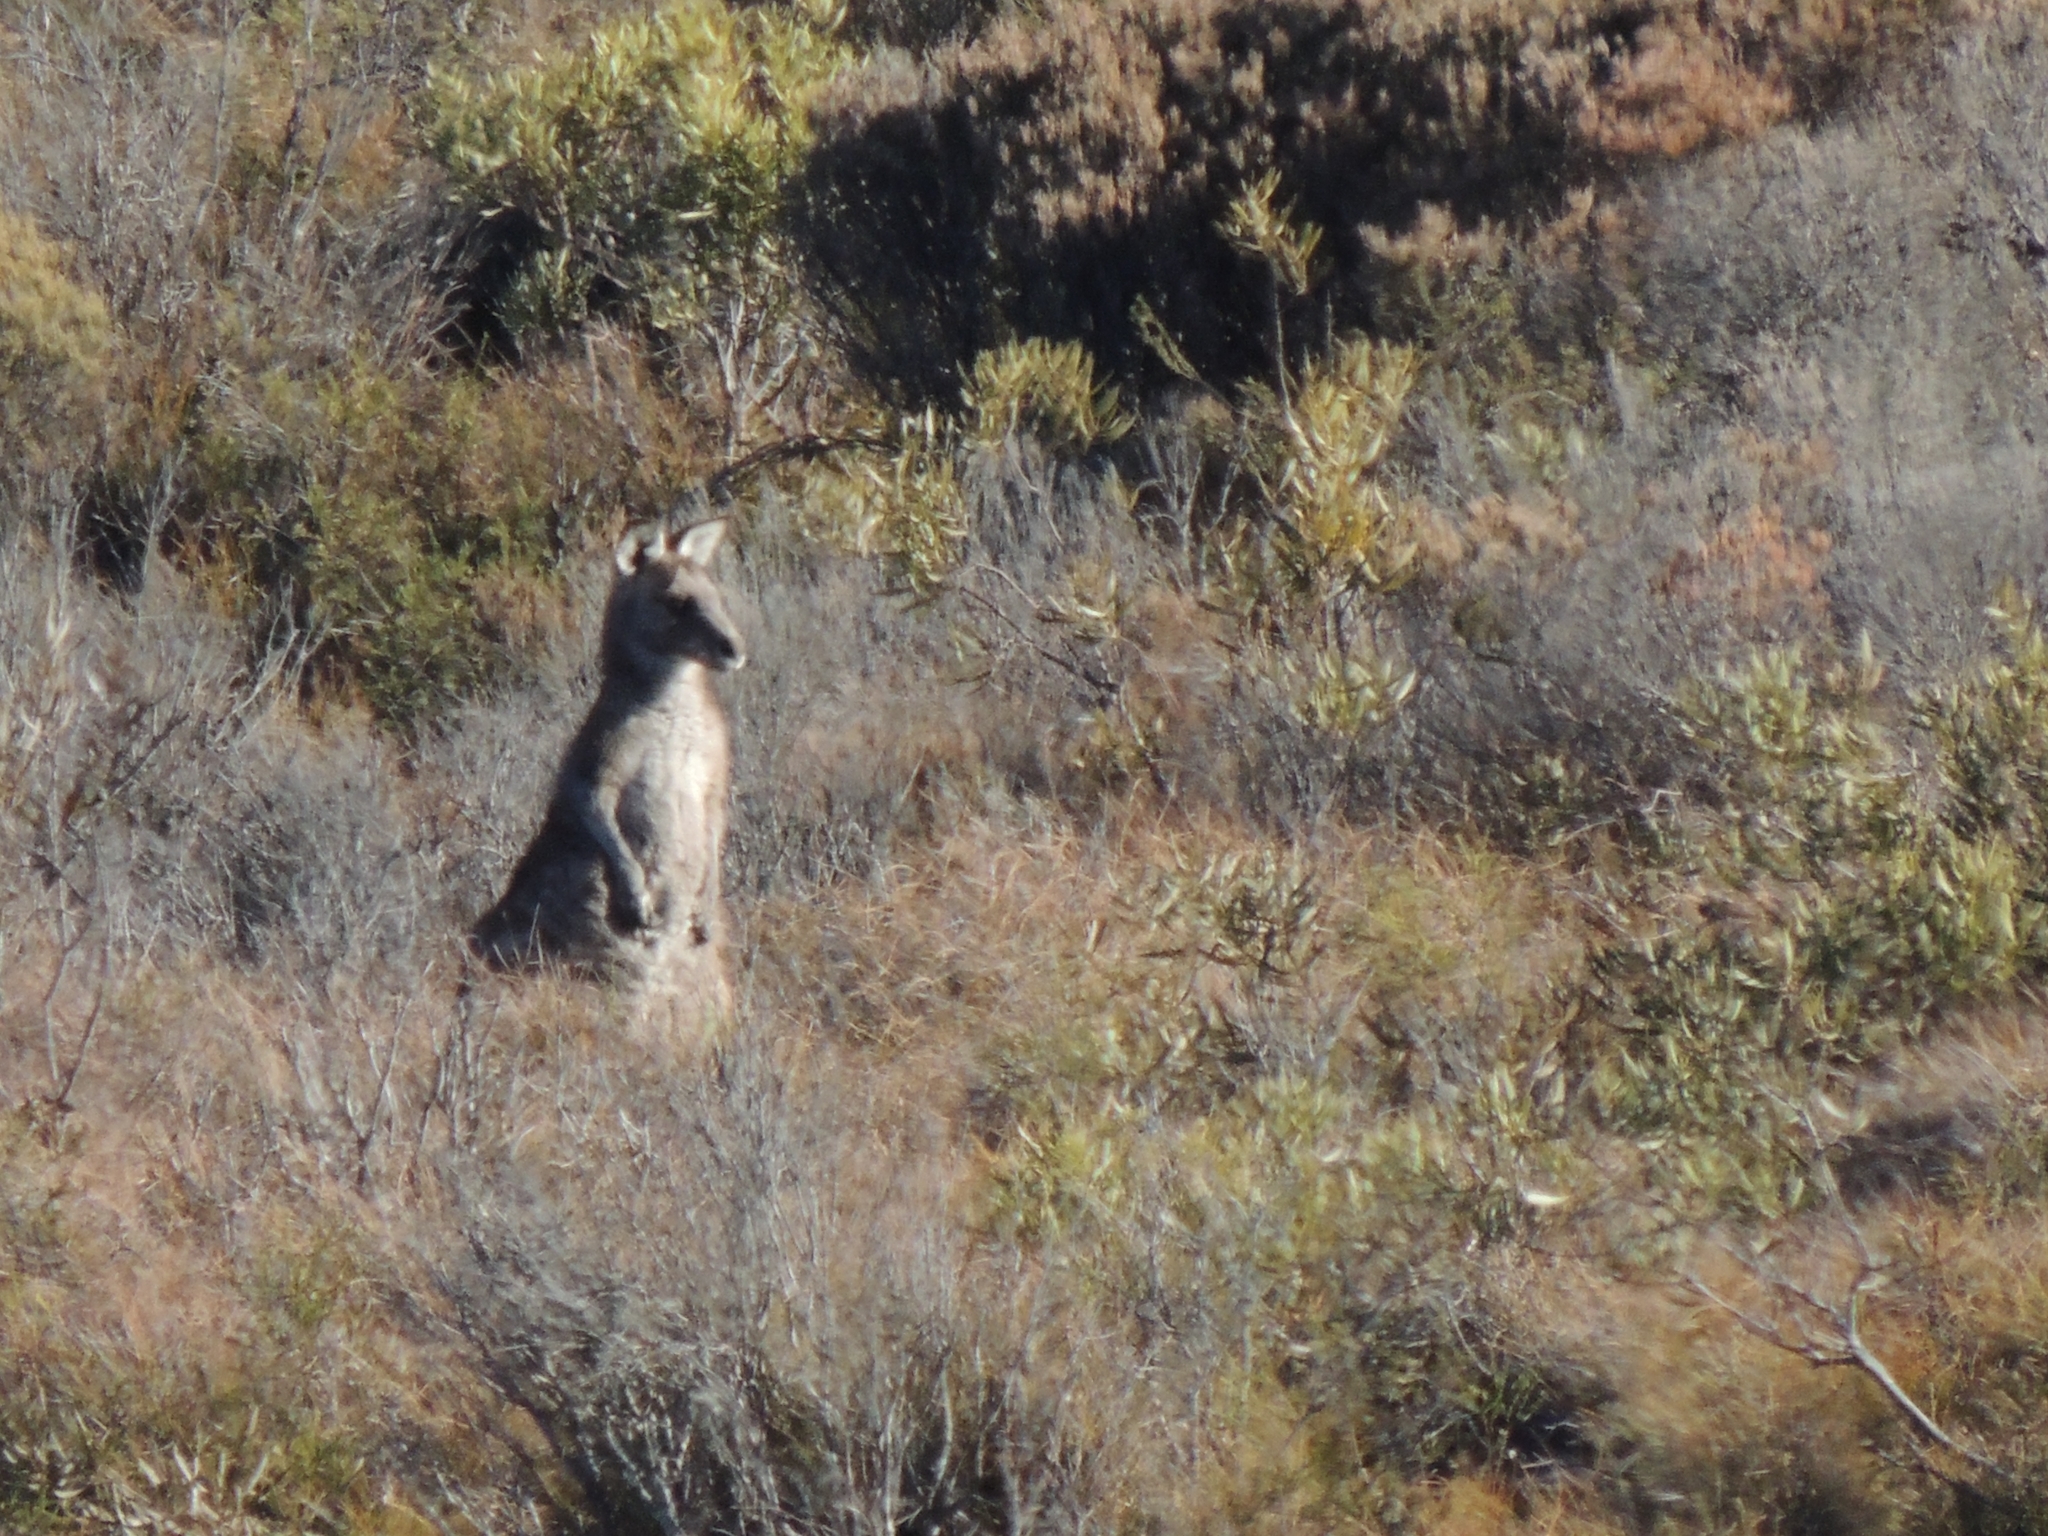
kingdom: Animalia
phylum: Chordata
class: Mammalia
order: Diprotodontia
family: Macropodidae
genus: Macropus
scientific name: Macropus giganteus
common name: Eastern grey kangaroo
